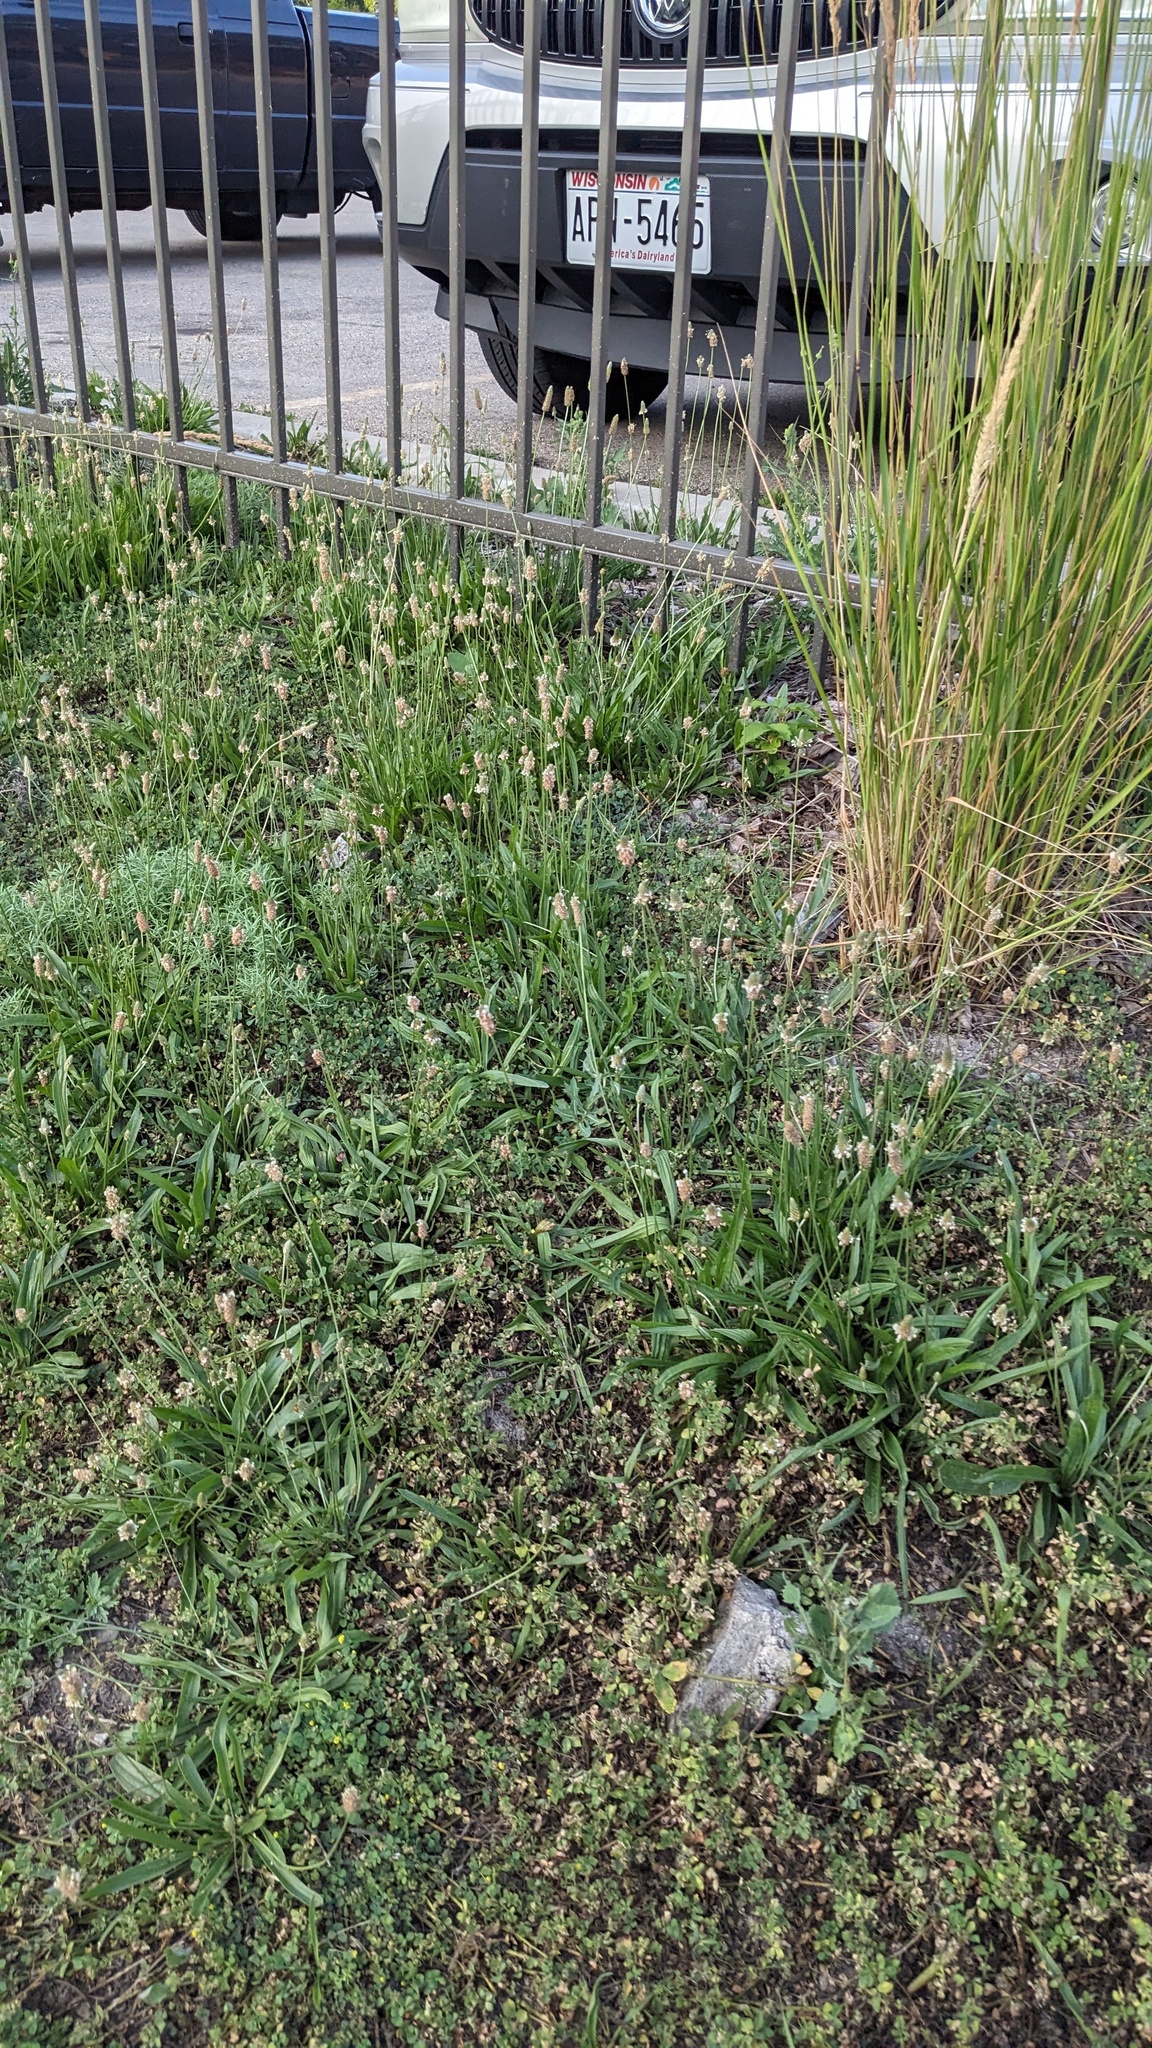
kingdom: Plantae
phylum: Tracheophyta
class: Magnoliopsida
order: Lamiales
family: Plantaginaceae
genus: Plantago
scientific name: Plantago lanceolata
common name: Ribwort plantain
